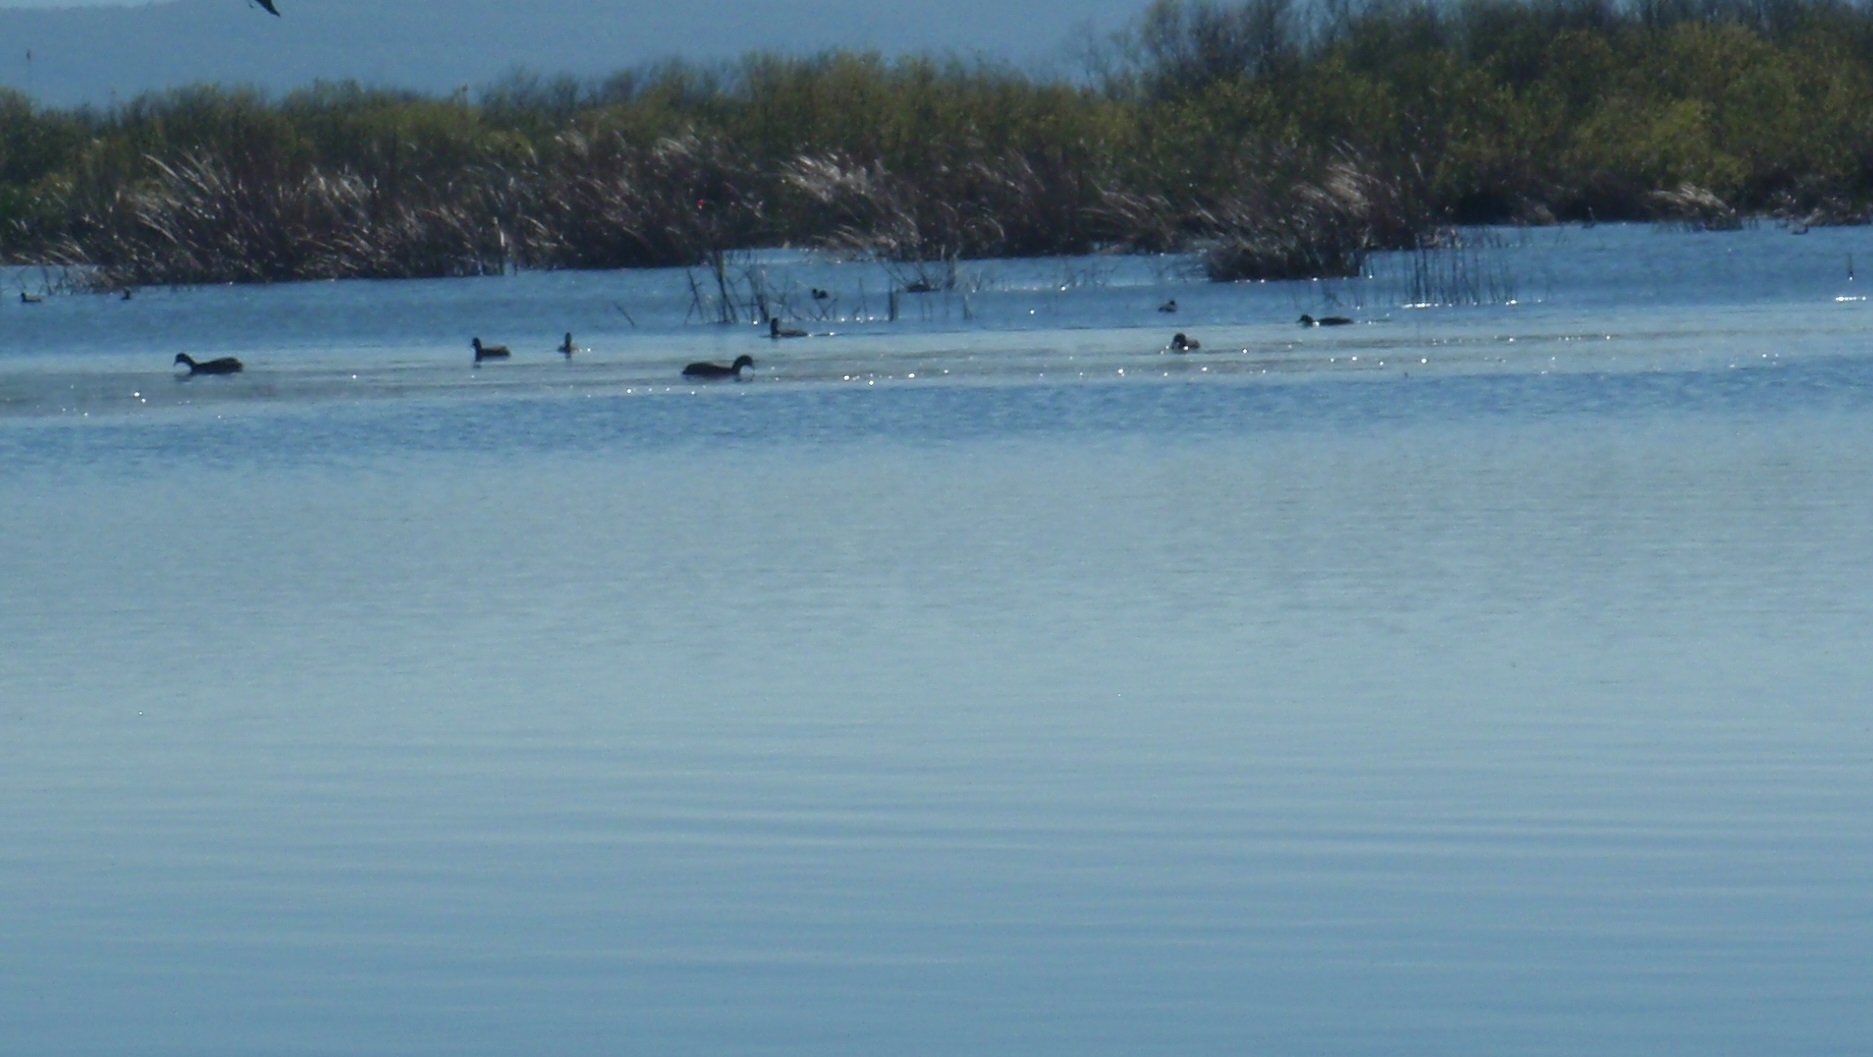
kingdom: Animalia
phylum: Chordata
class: Aves
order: Gruiformes
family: Rallidae
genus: Fulica
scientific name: Fulica atra
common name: Eurasian coot
